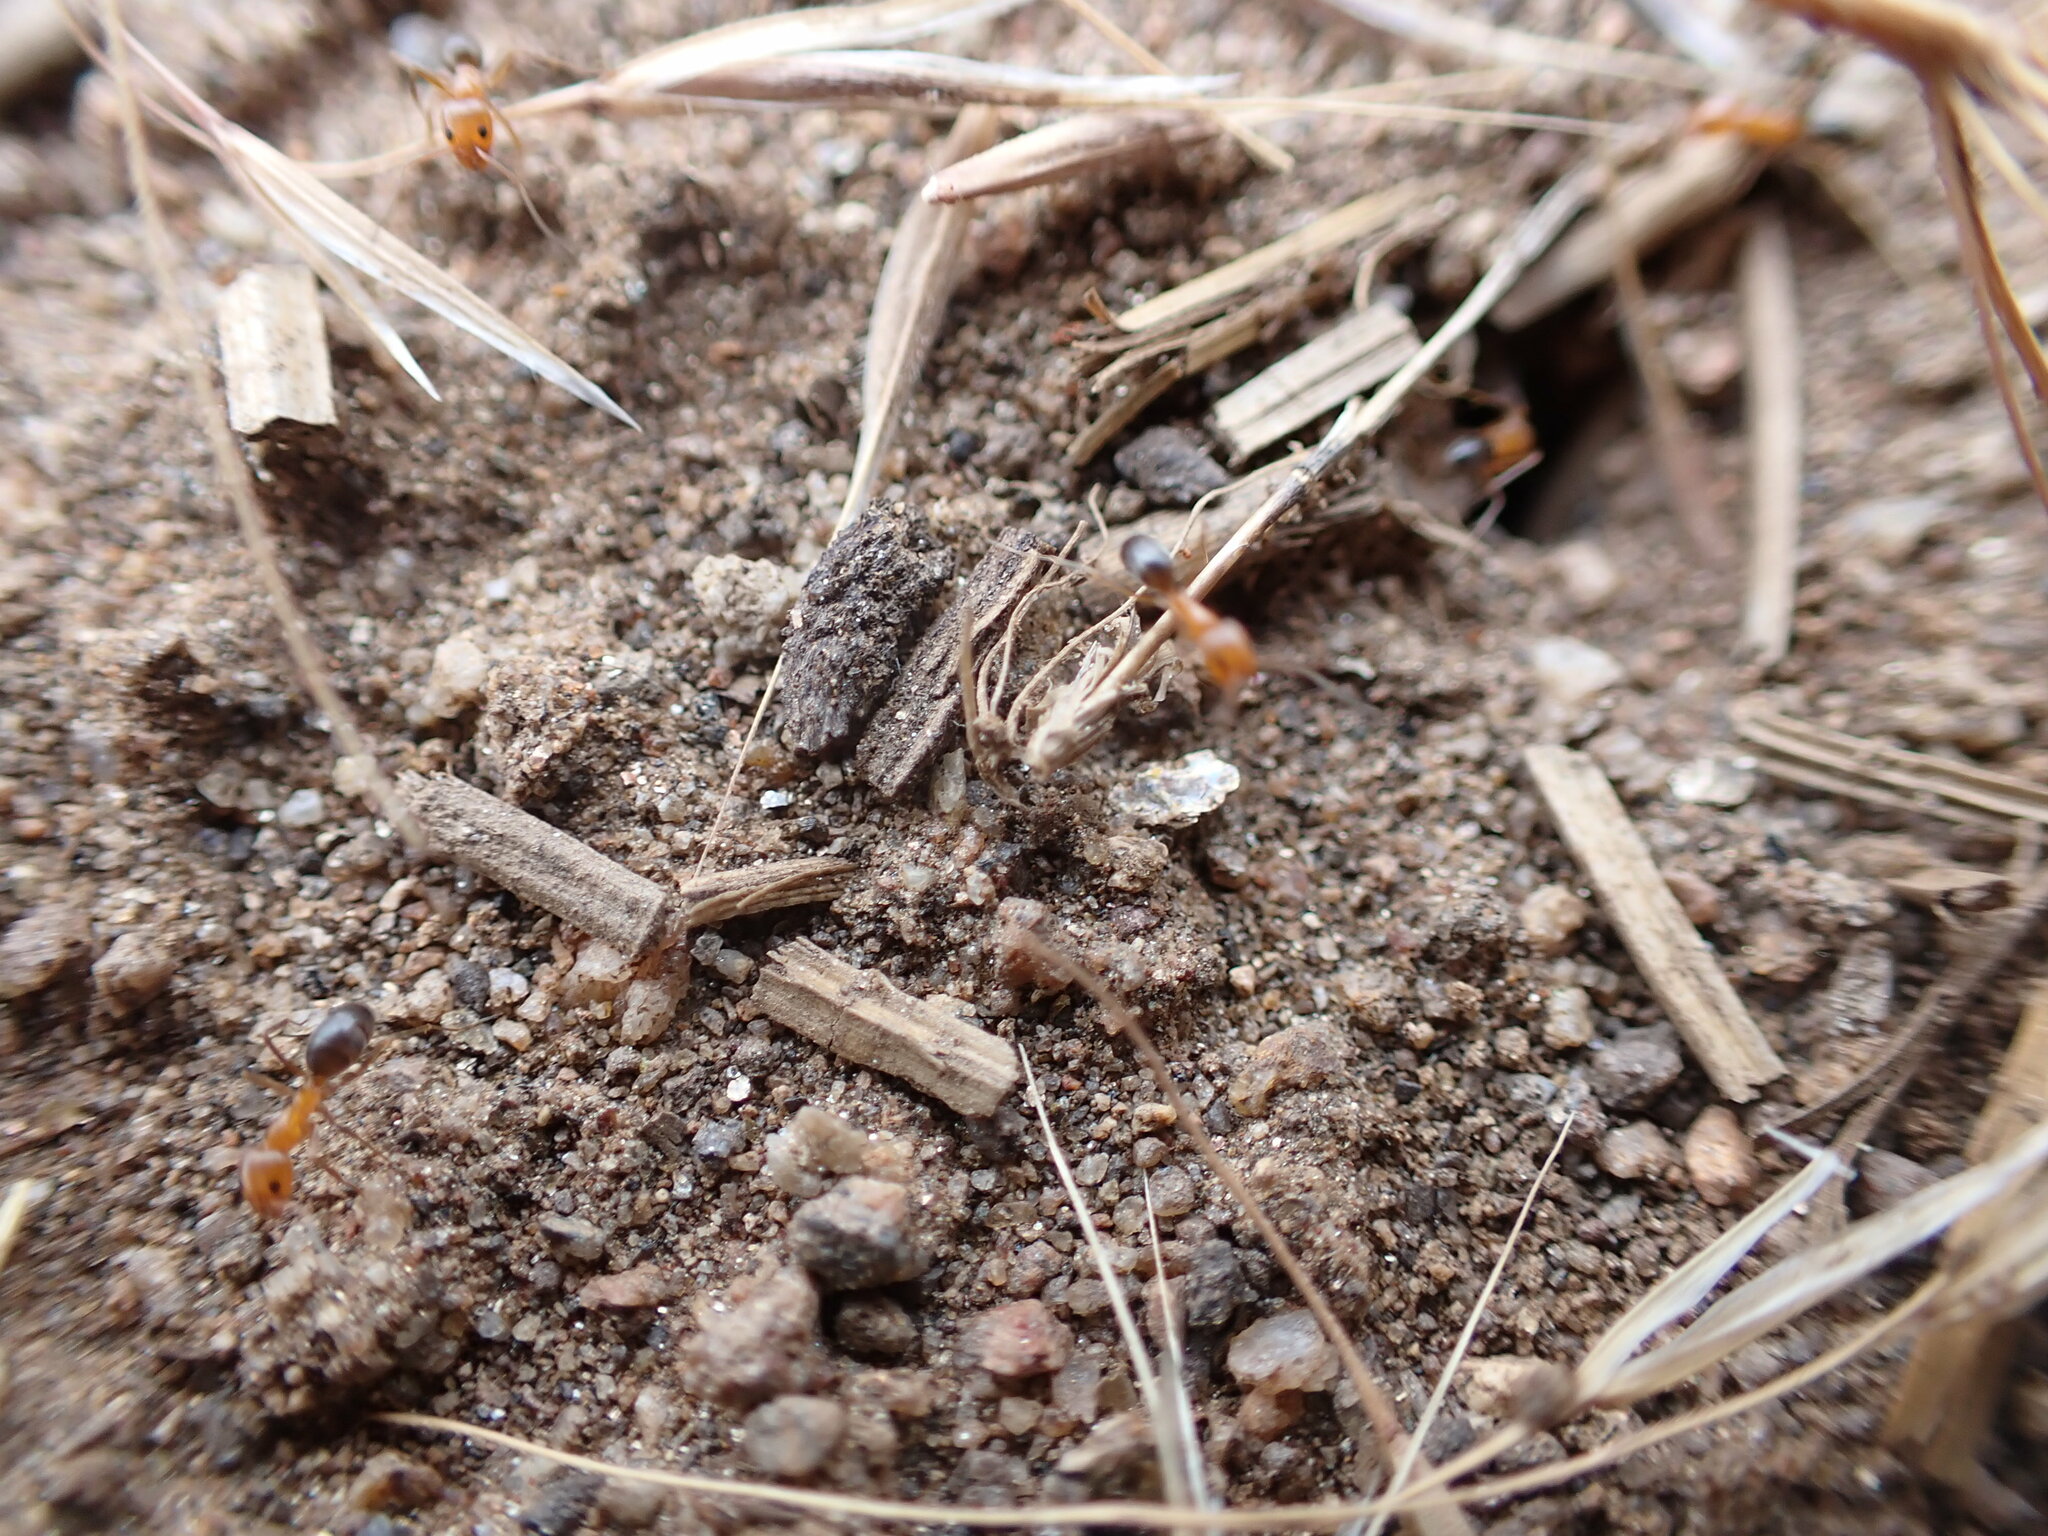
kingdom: Animalia
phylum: Arthropoda
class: Insecta
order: Hymenoptera
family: Formicidae
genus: Dorymyrmex
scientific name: Dorymyrmex bicolor
